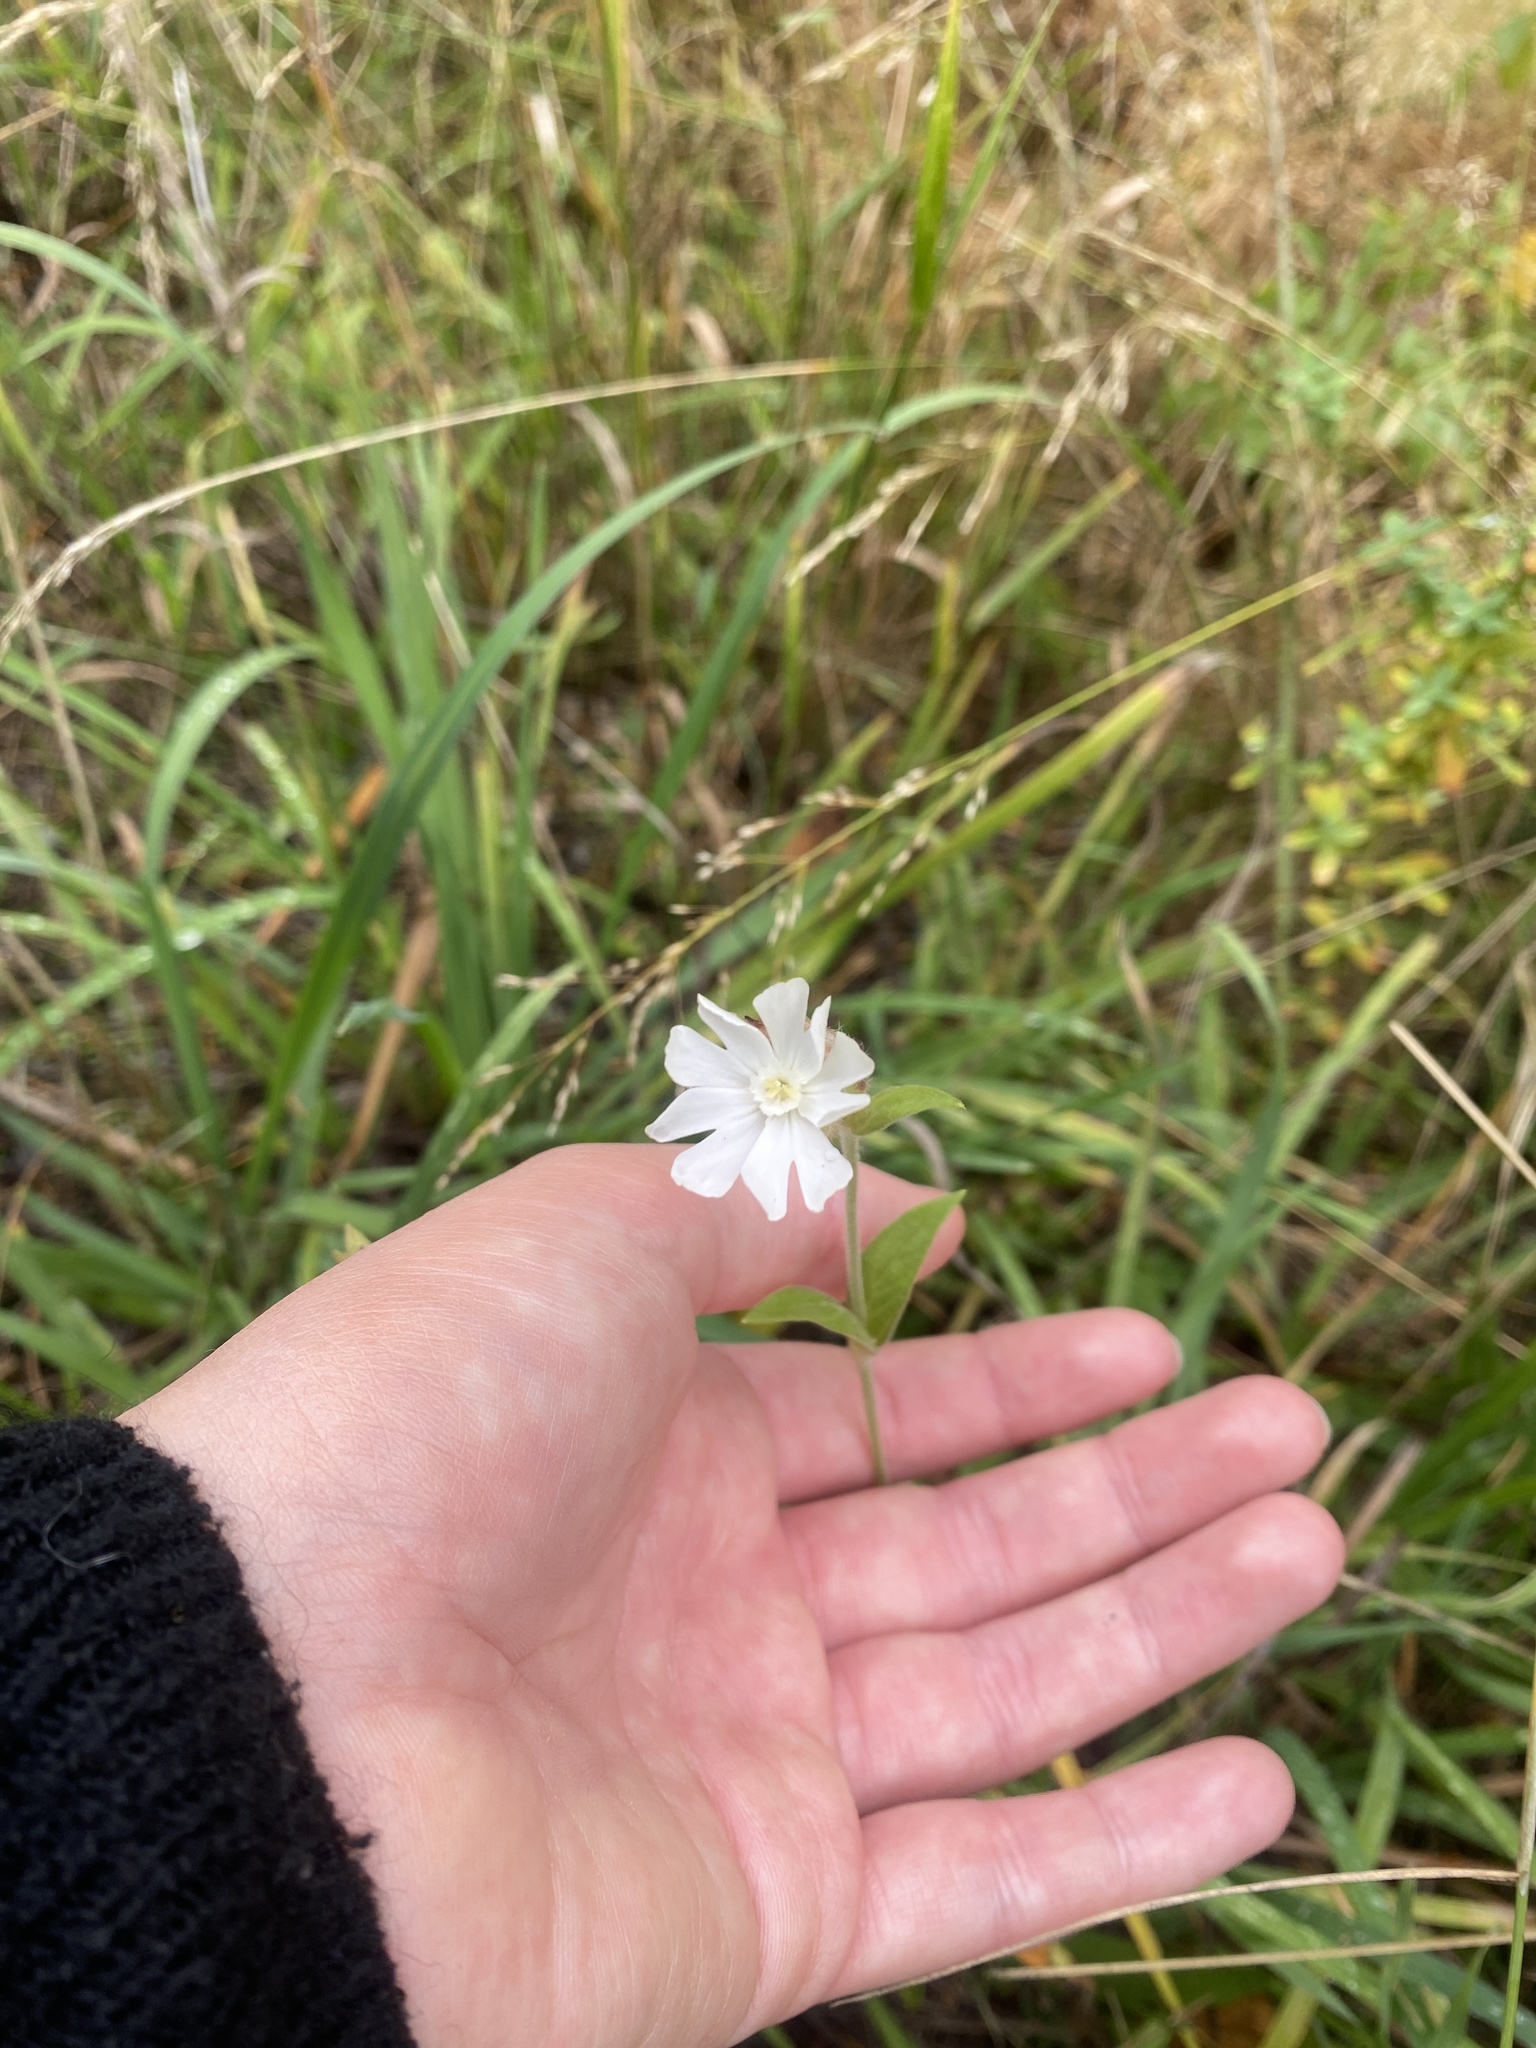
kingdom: Plantae
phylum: Tracheophyta
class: Magnoliopsida
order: Caryophyllales
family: Caryophyllaceae
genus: Silene
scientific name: Silene latifolia
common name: White campion
